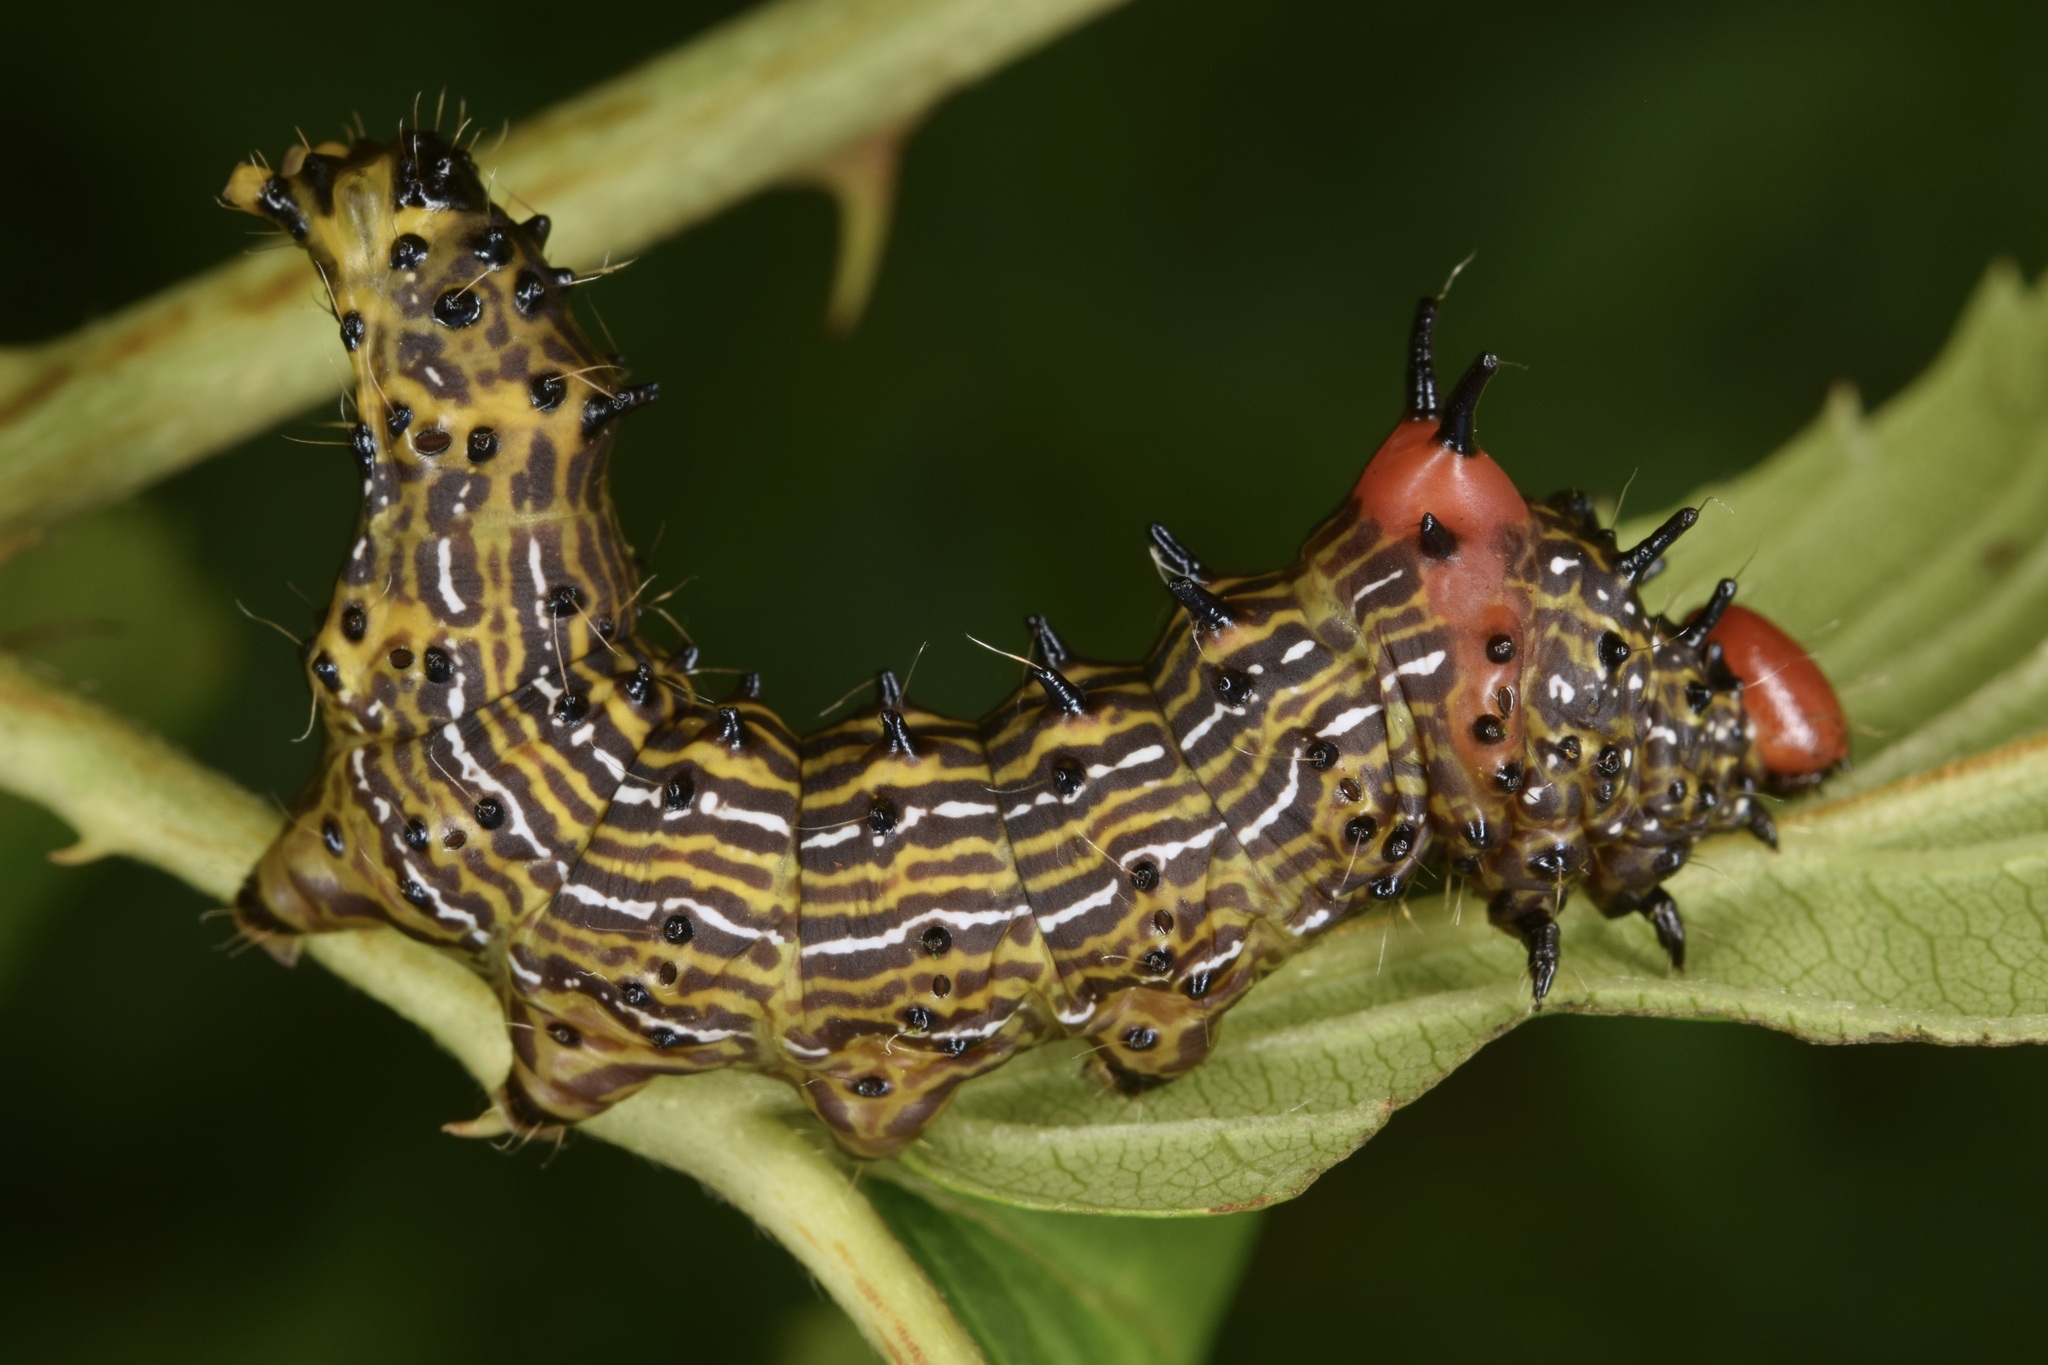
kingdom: Animalia
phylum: Arthropoda
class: Insecta
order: Lepidoptera
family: Notodontidae
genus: Schizura
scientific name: Schizura
